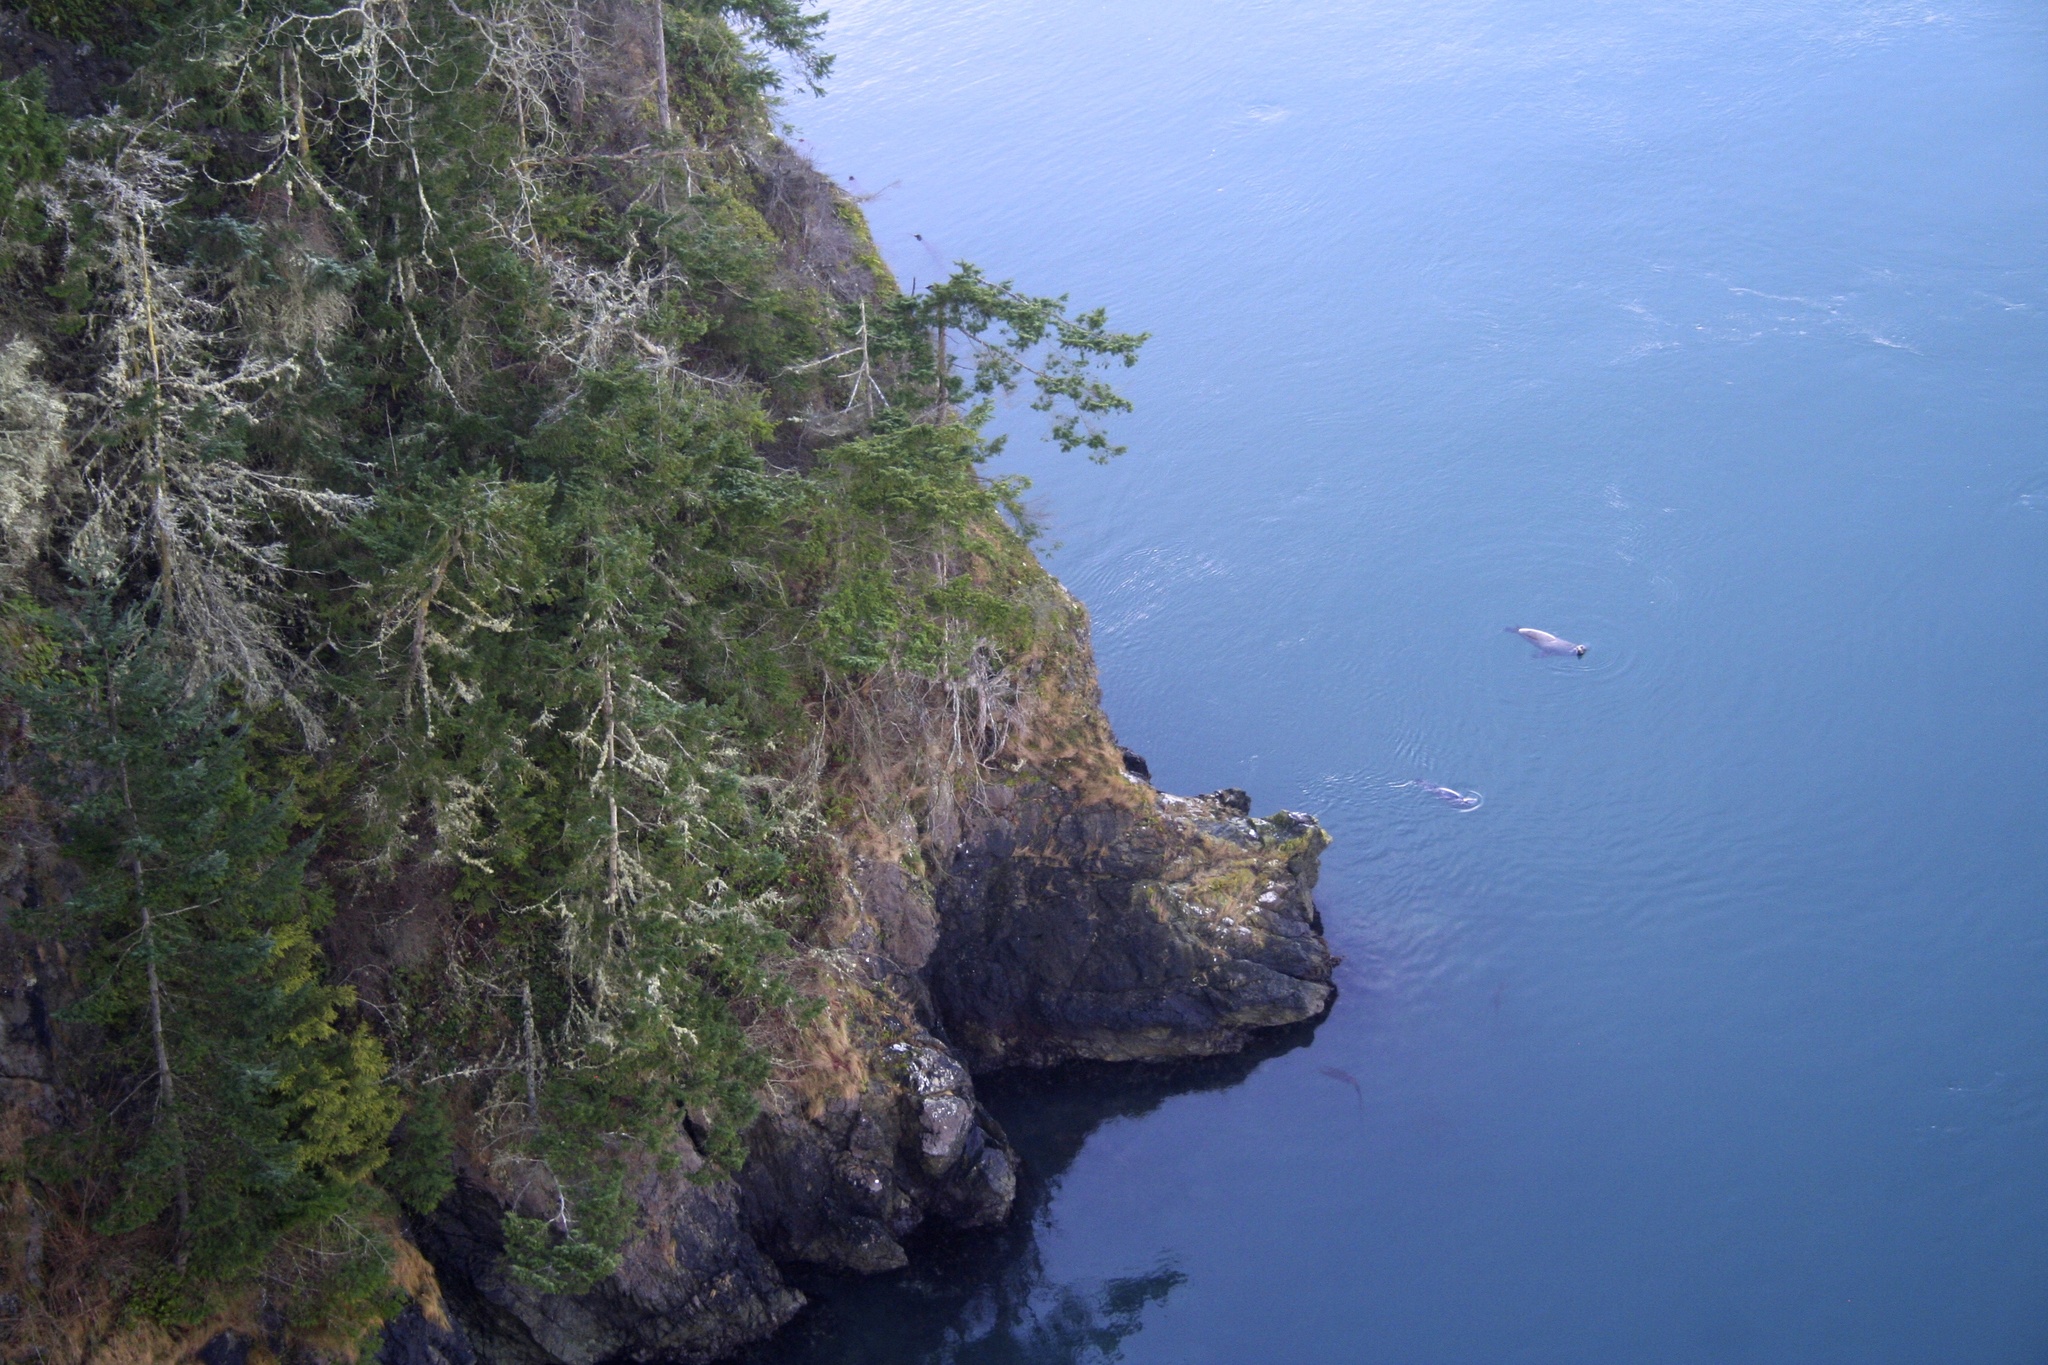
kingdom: Animalia
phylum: Chordata
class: Mammalia
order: Carnivora
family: Otariidae
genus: Zalophus
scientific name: Zalophus californianus
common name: California sea lion
